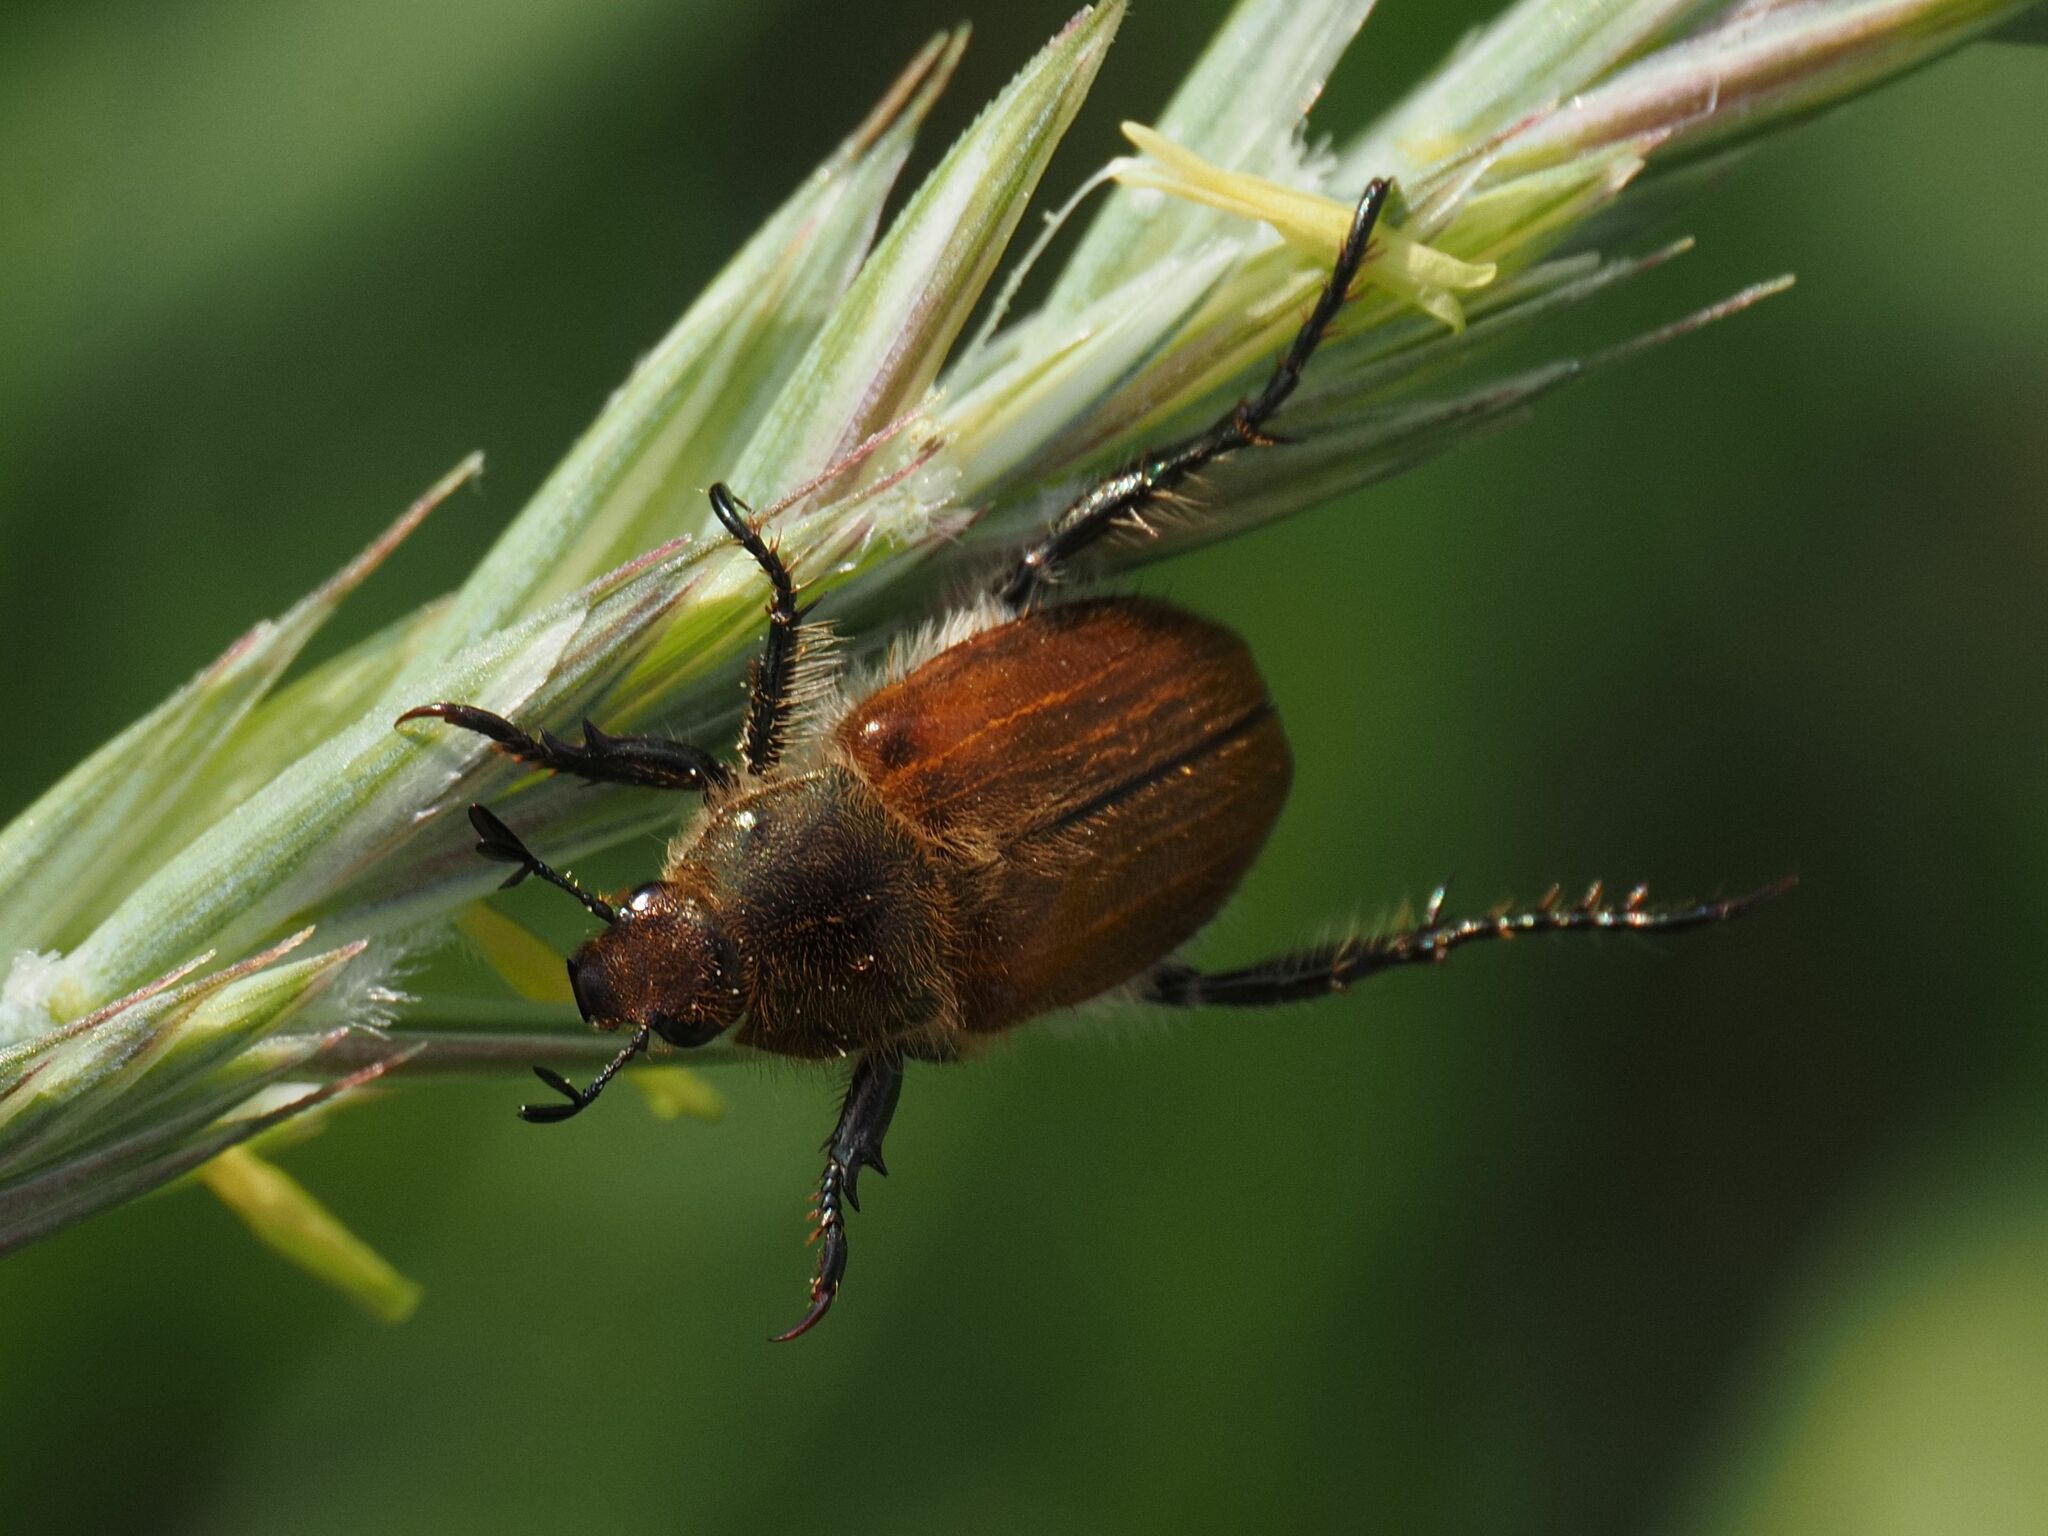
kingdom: Animalia
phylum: Arthropoda
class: Insecta
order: Coleoptera
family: Scarabaeidae
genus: Chaetopteroplia
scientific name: Chaetopteroplia segetum
